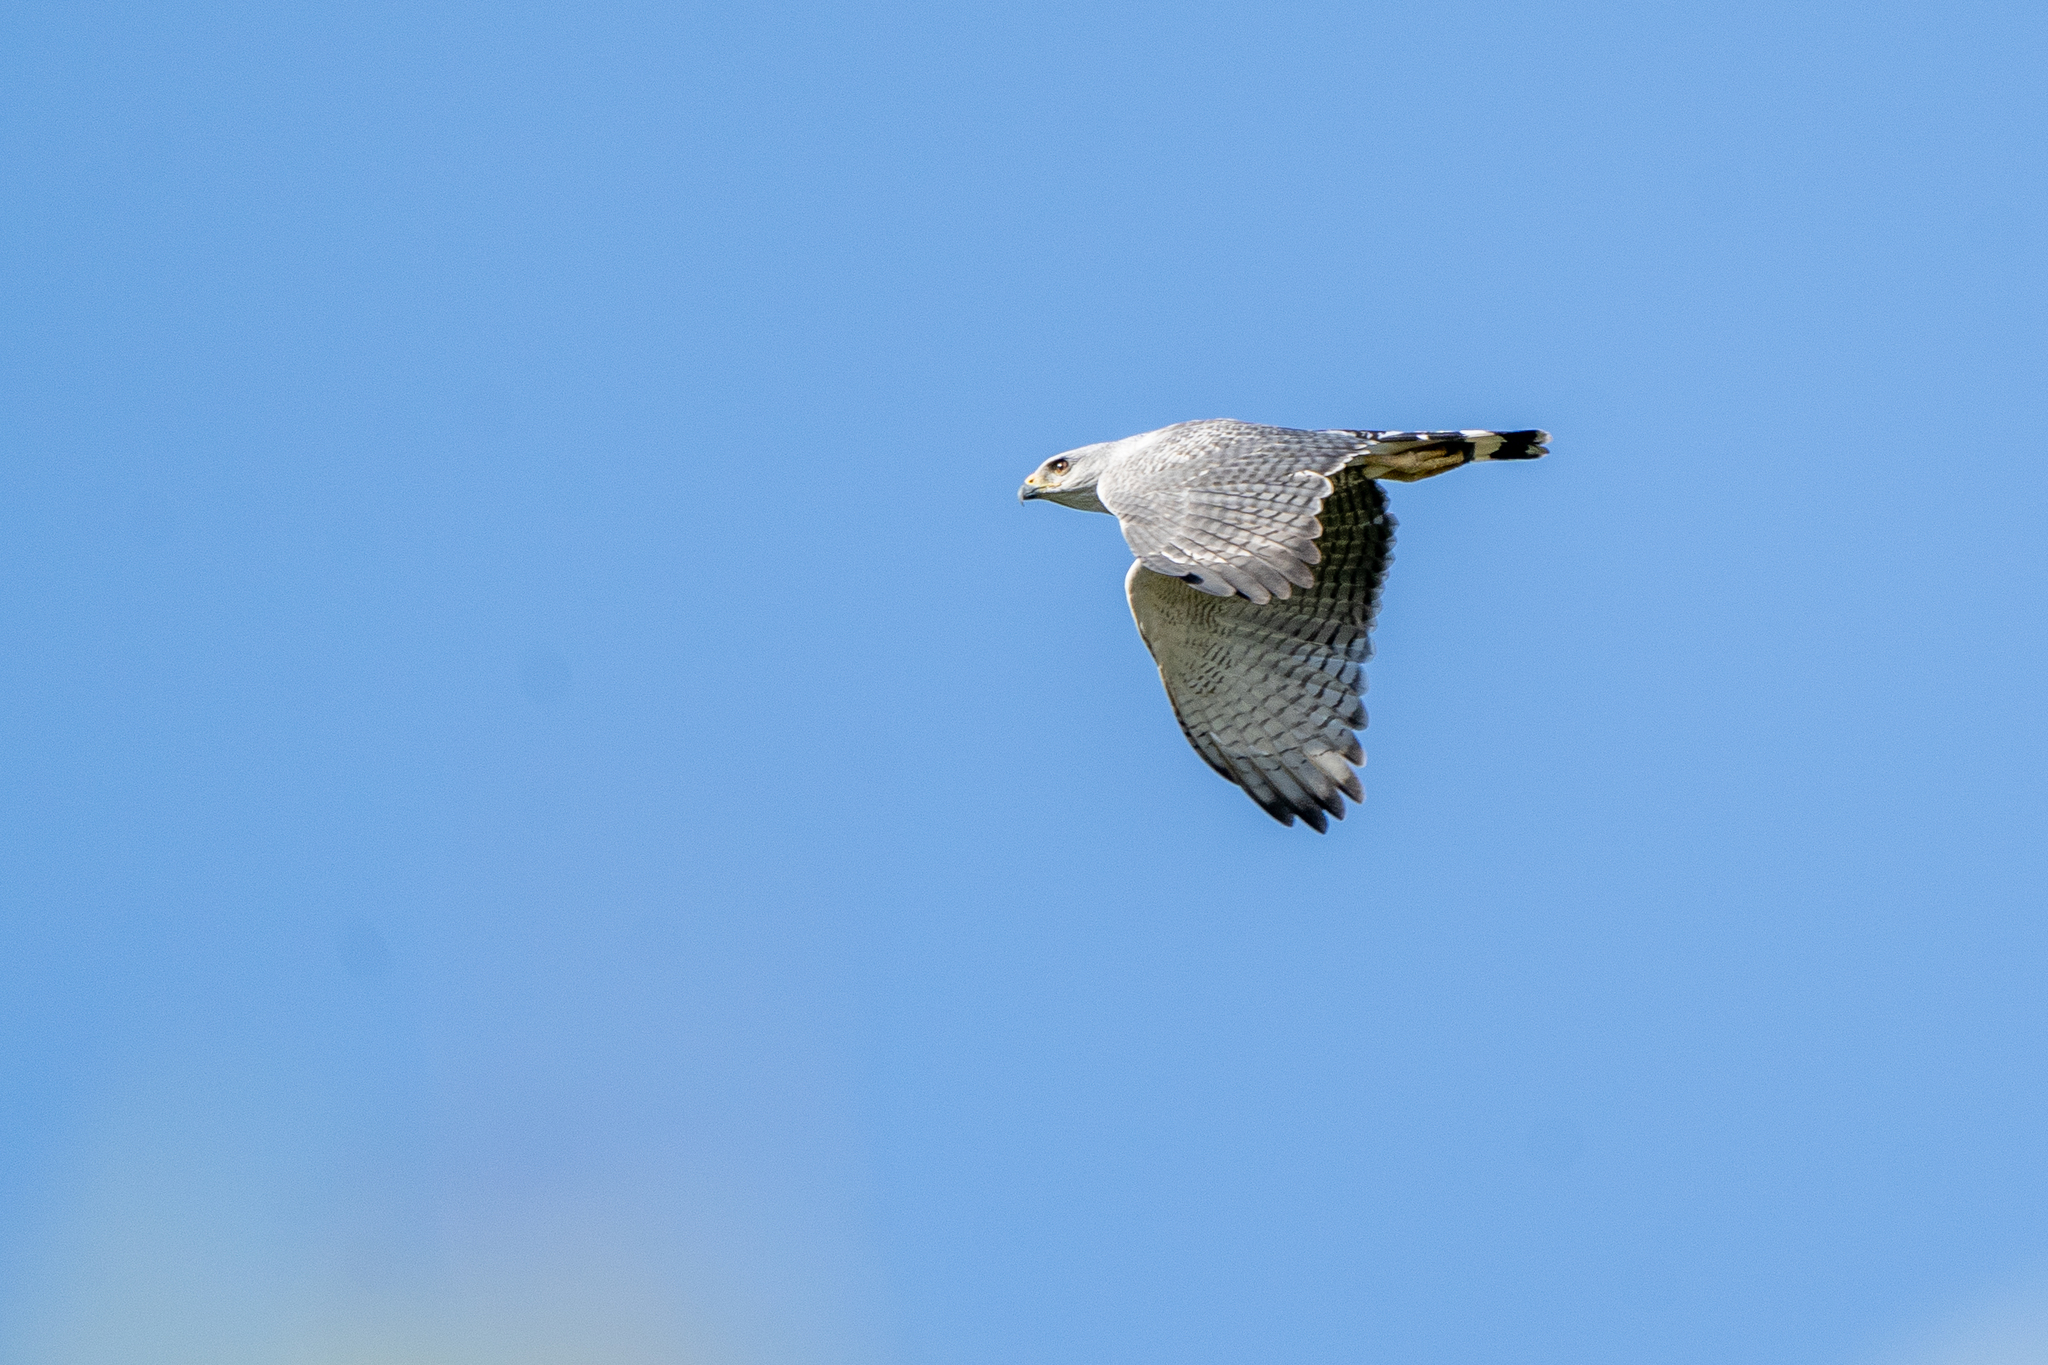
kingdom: Animalia
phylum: Chordata
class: Aves
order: Accipitriformes
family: Accipitridae
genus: Buteo
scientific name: Buteo nitidus
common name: Grey-lined hawk
